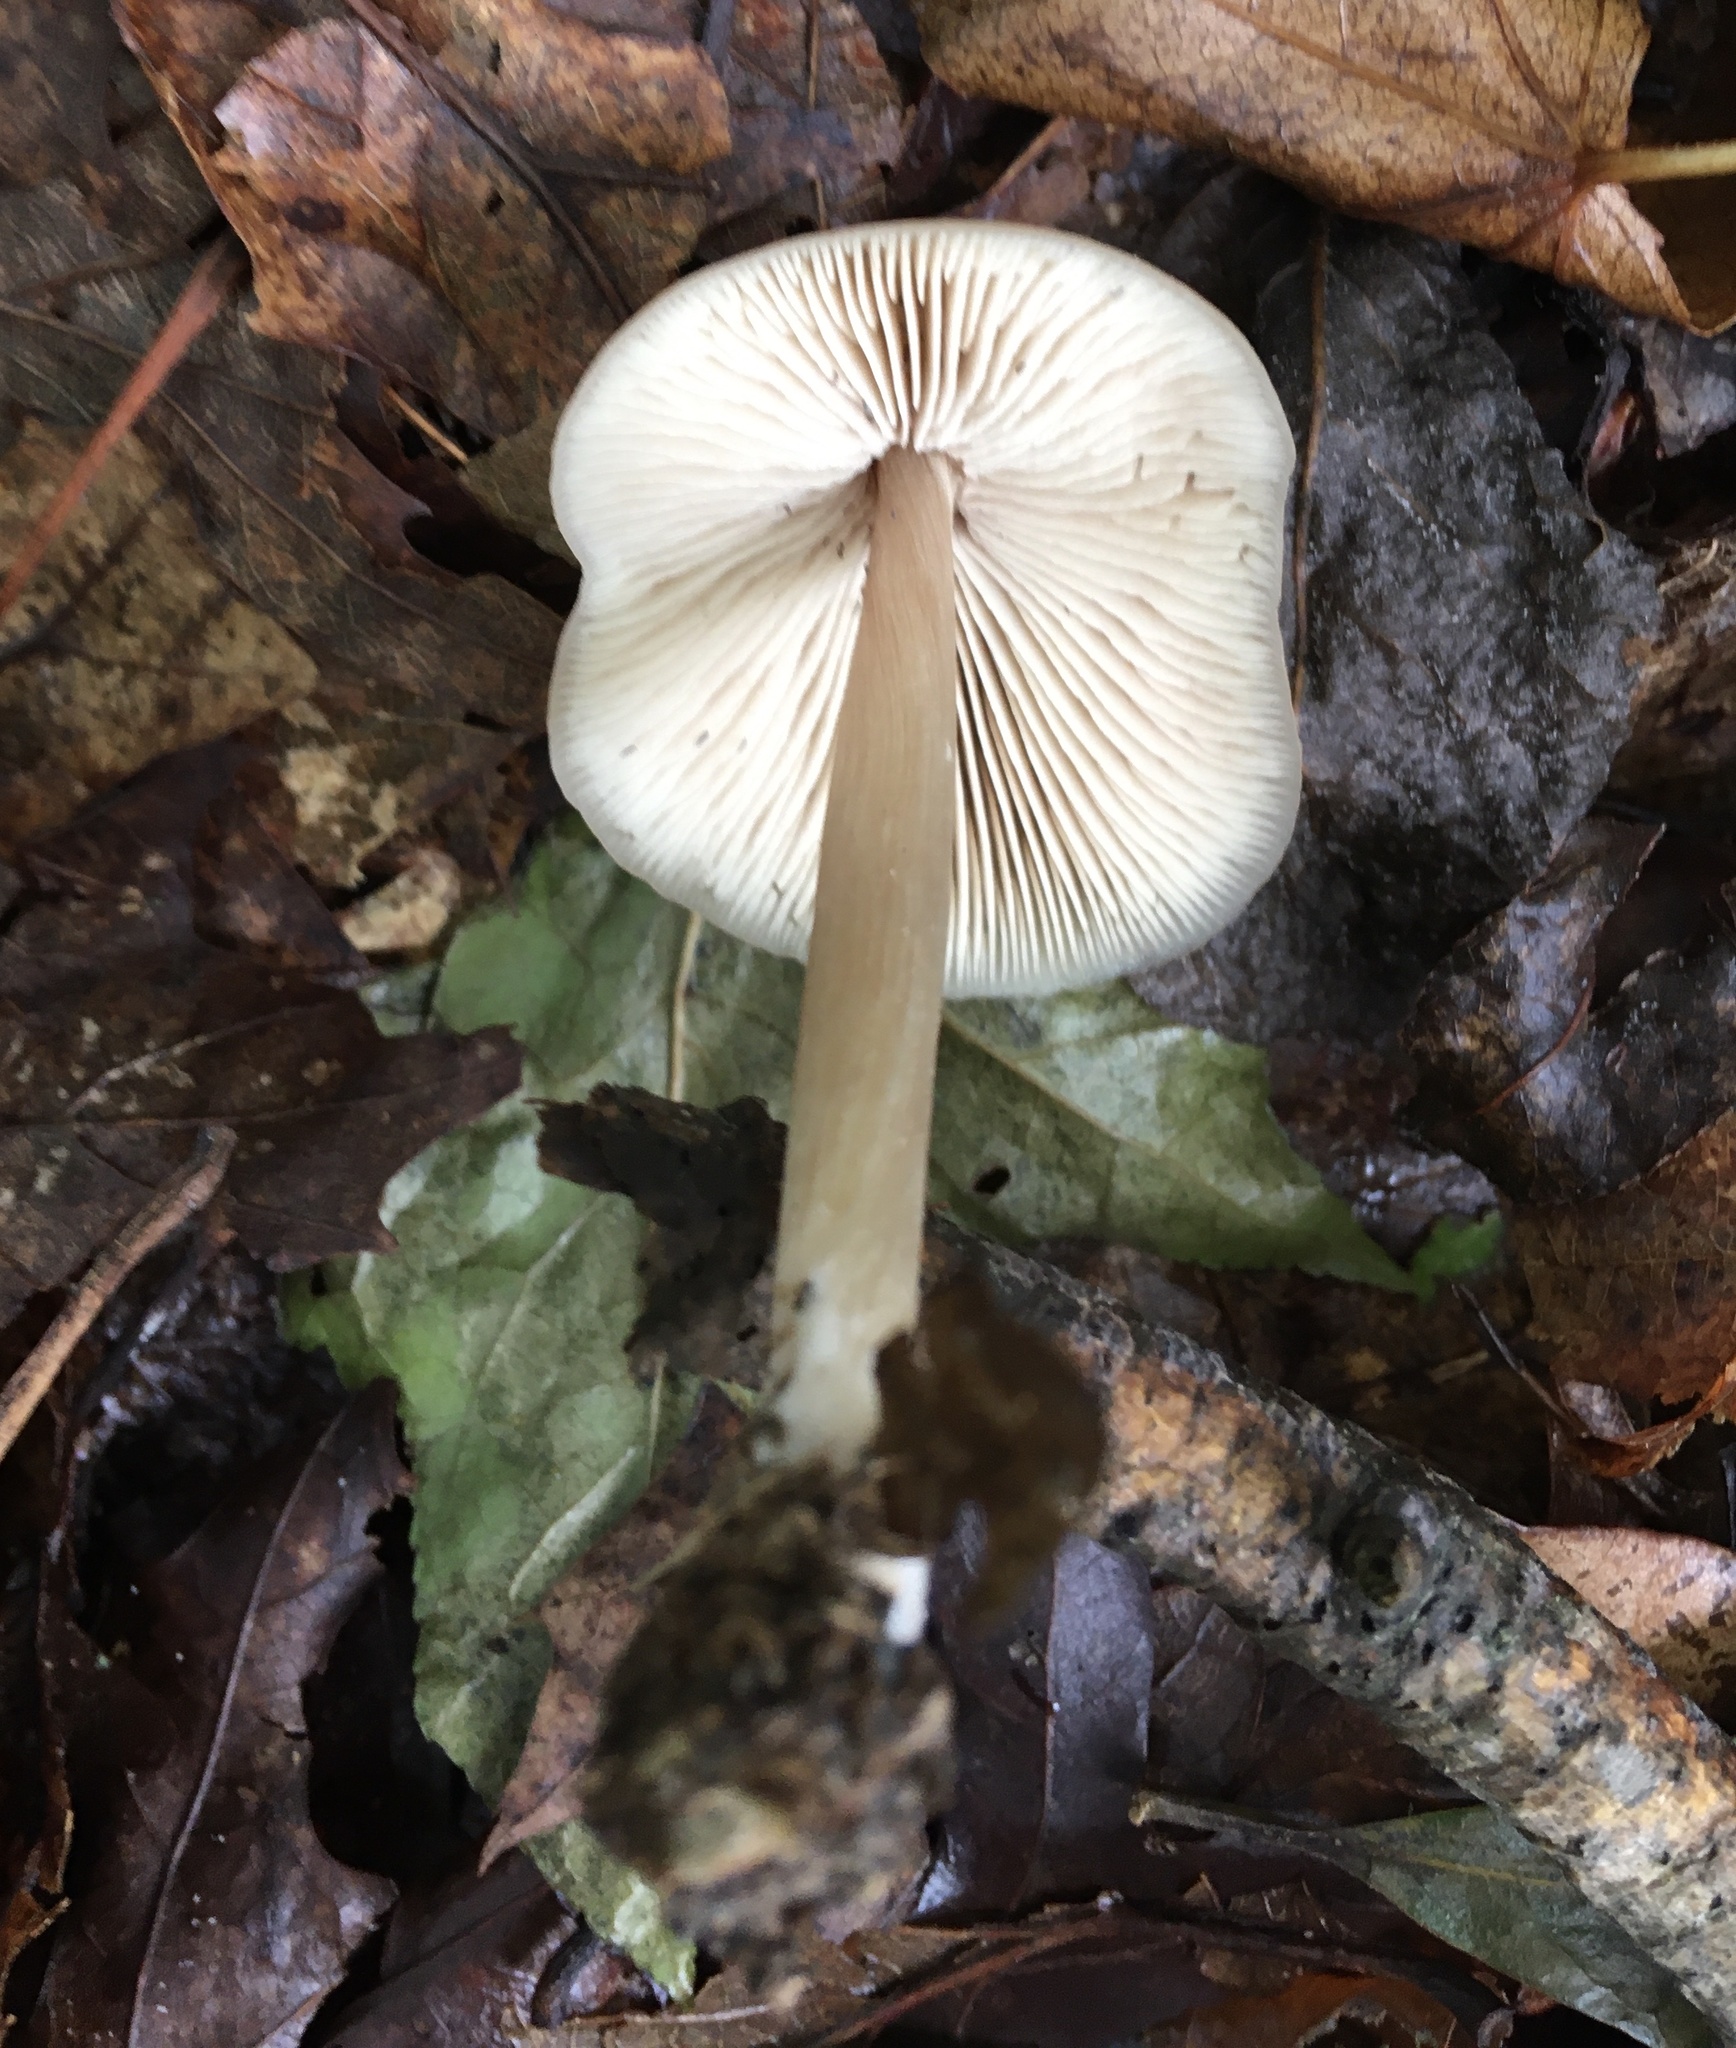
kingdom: Fungi
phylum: Basidiomycota
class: Agaricomycetes
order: Agaricales
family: Entolomataceae
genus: Entoloma
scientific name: Entoloma strictius
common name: Straight-stalked entoloma
